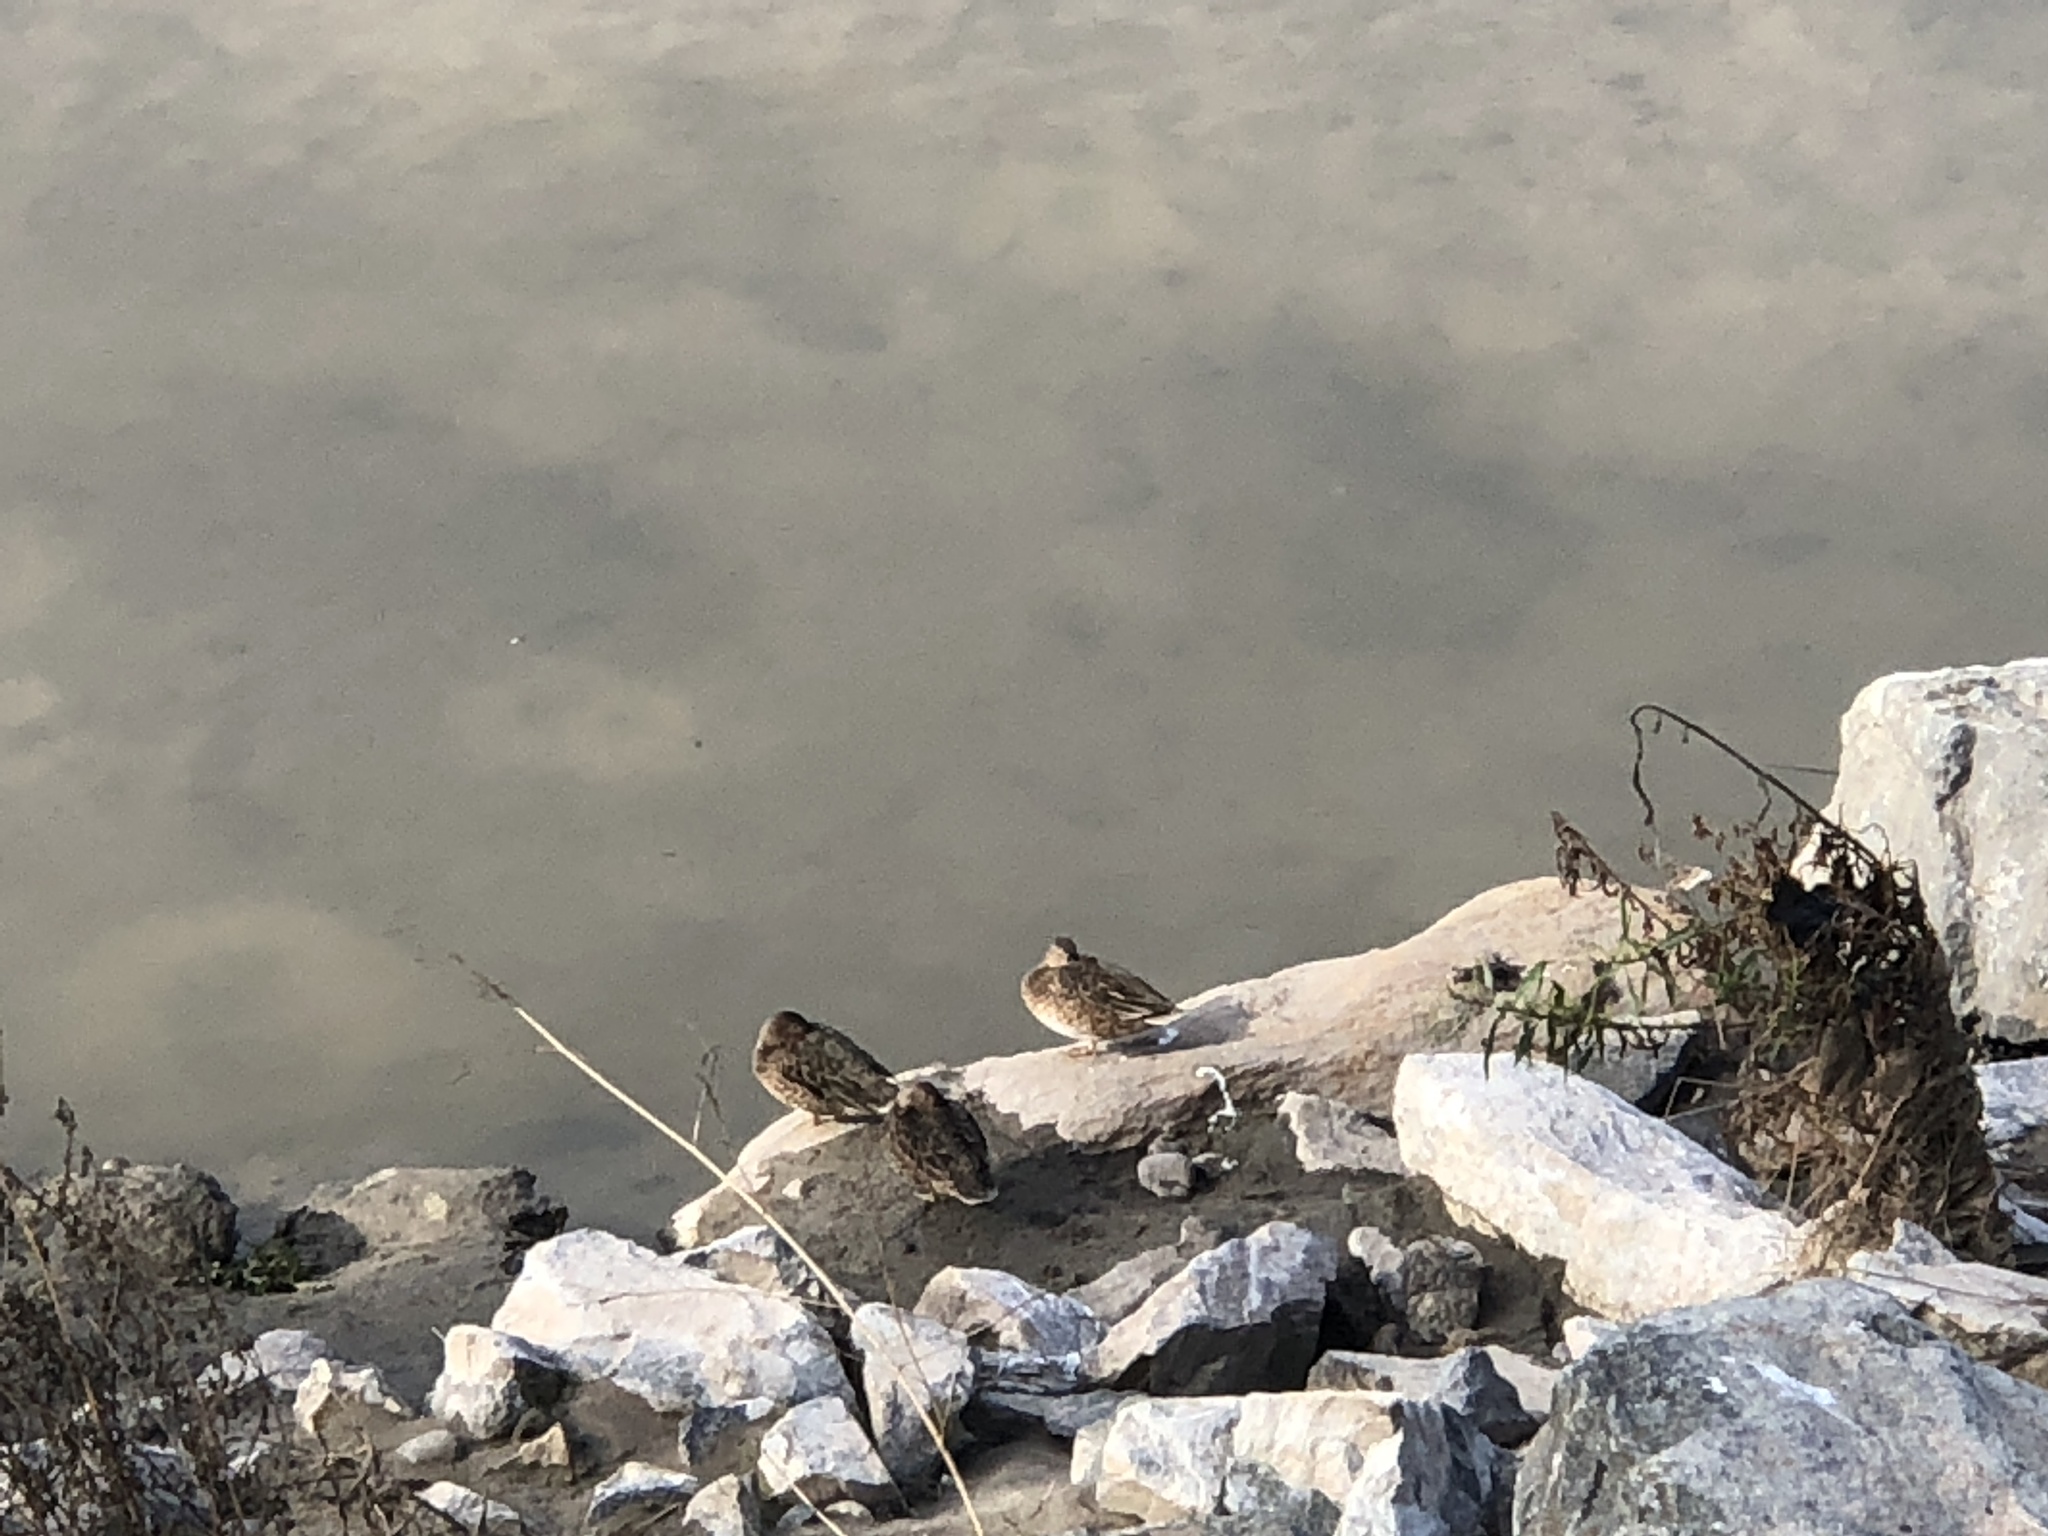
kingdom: Animalia
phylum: Chordata
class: Aves
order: Anseriformes
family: Anatidae
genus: Spatula
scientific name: Spatula cyanoptera
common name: Cinnamon teal
